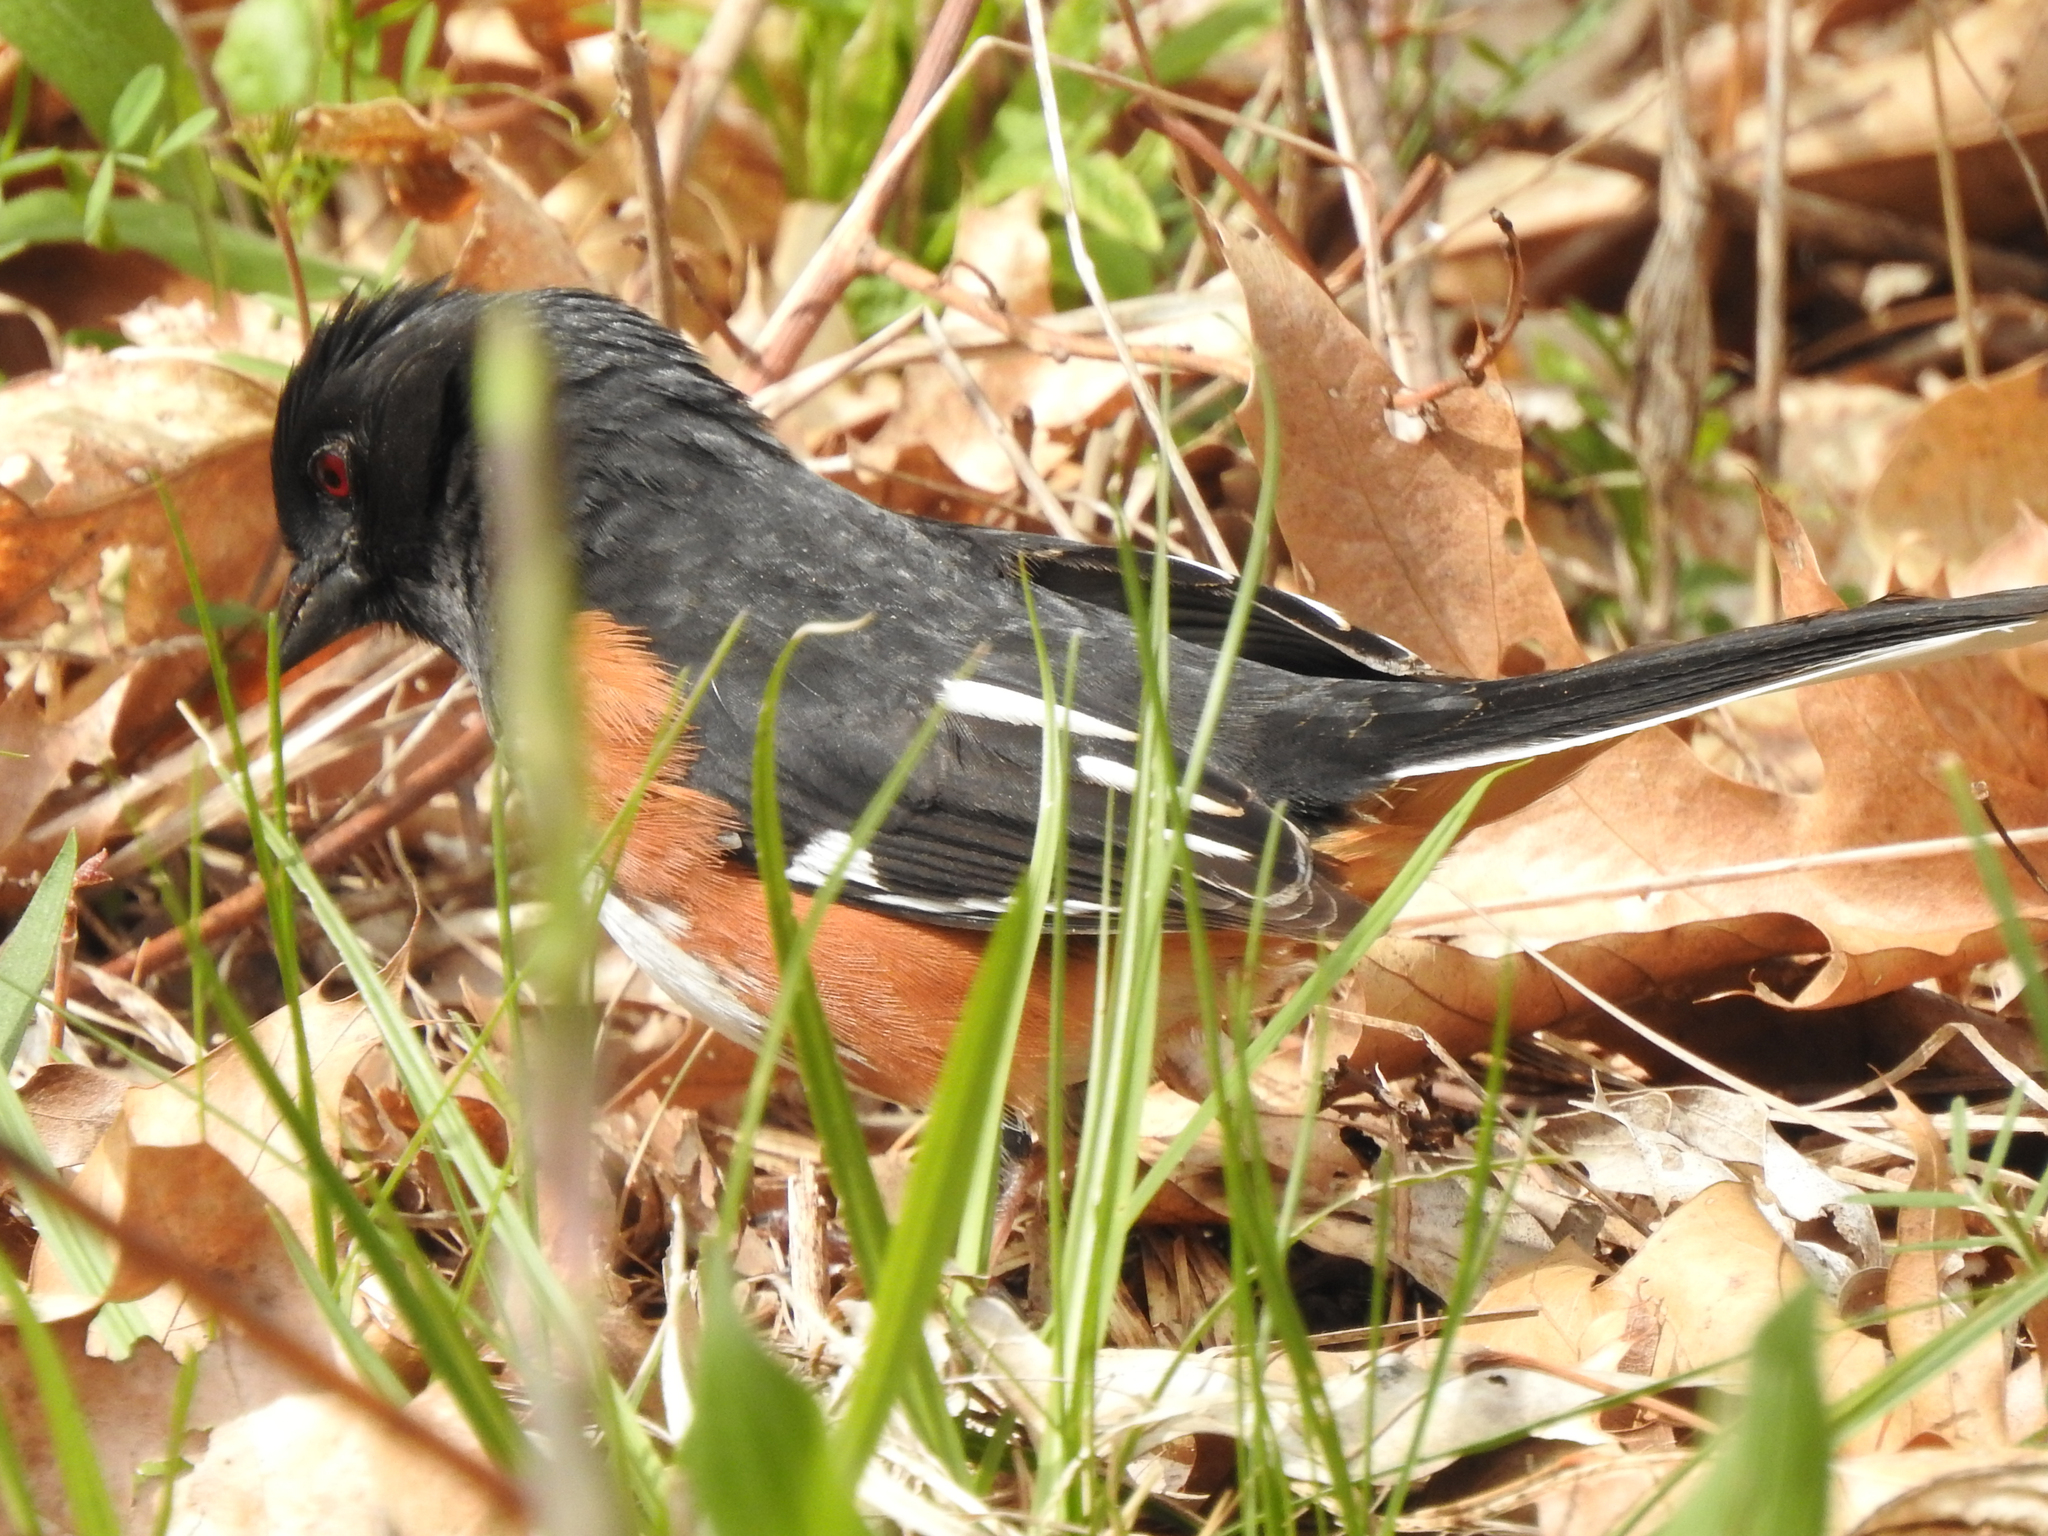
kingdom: Animalia
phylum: Chordata
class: Aves
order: Passeriformes
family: Passerellidae
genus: Pipilo
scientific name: Pipilo erythrophthalmus
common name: Eastern towhee
